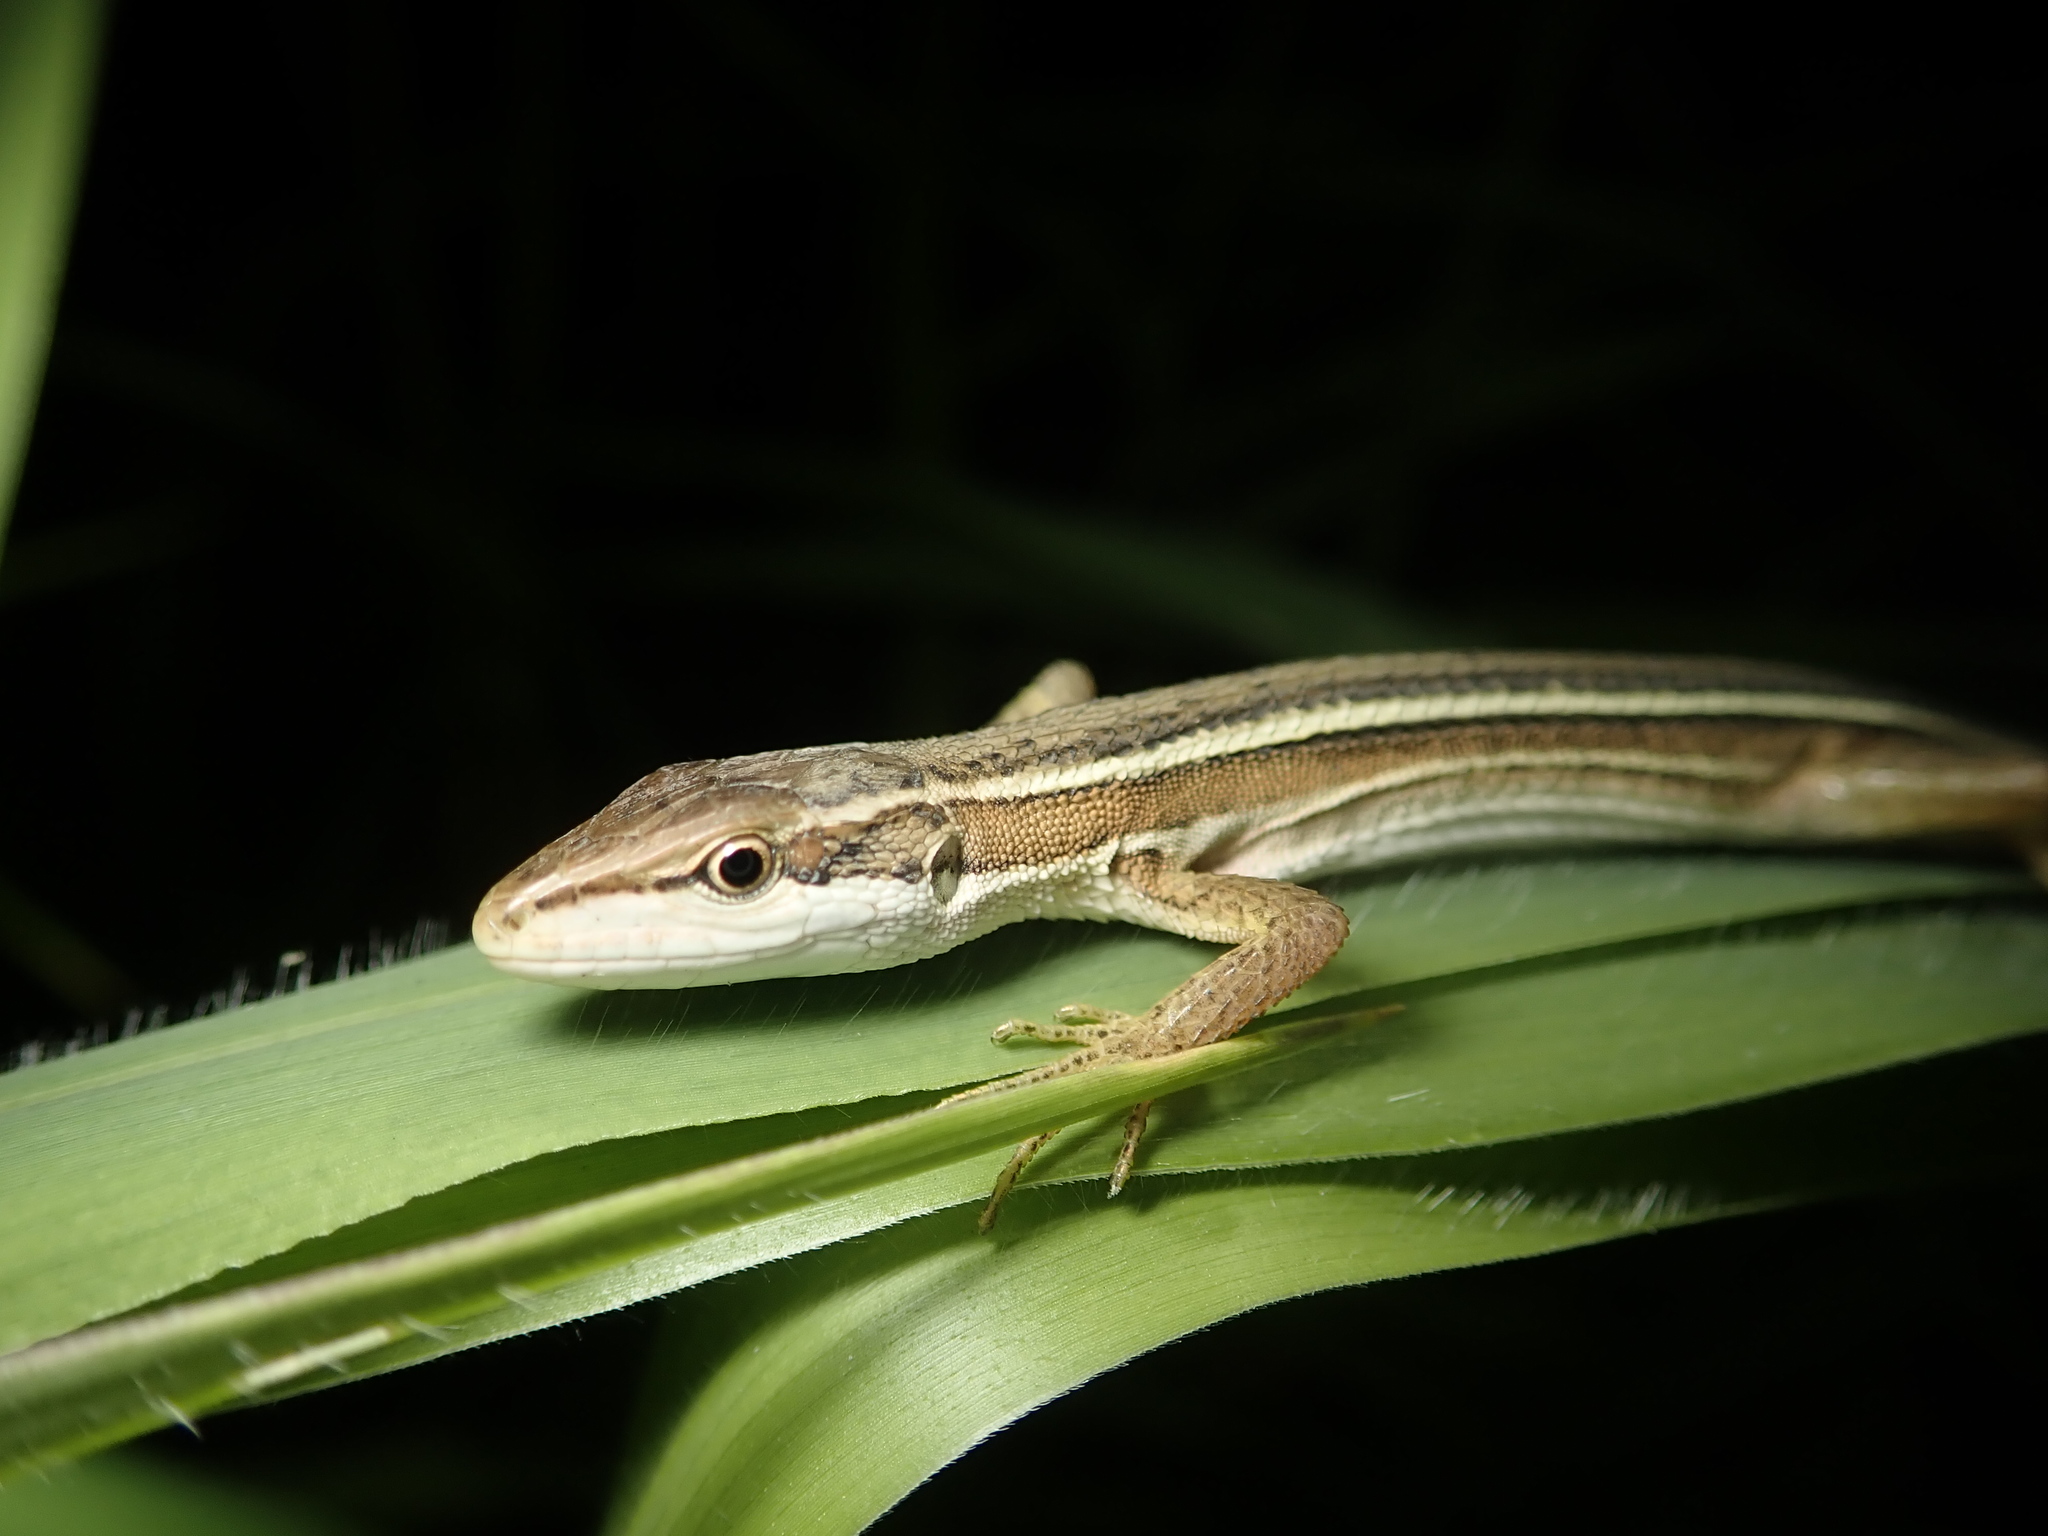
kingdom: Animalia
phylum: Chordata
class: Squamata
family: Lacertidae
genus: Takydromus
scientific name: Takydromus stejnegeri
